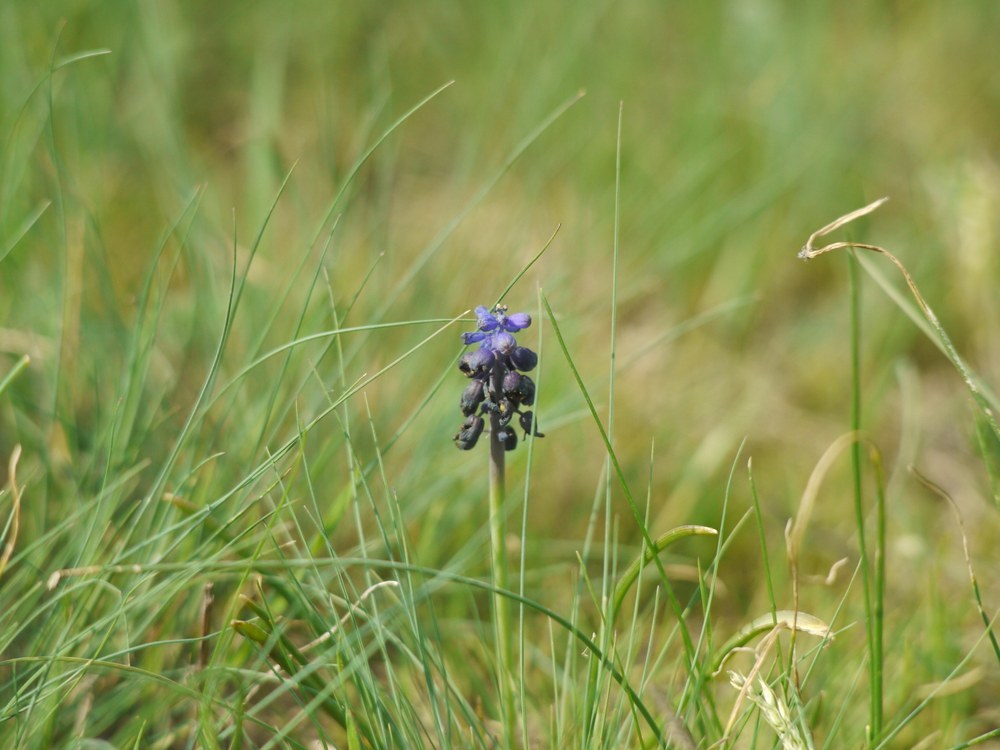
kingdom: Plantae
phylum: Tracheophyta
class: Liliopsida
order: Asparagales
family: Asparagaceae
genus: Muscari
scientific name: Muscari neglectum
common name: Grape-hyacinth
